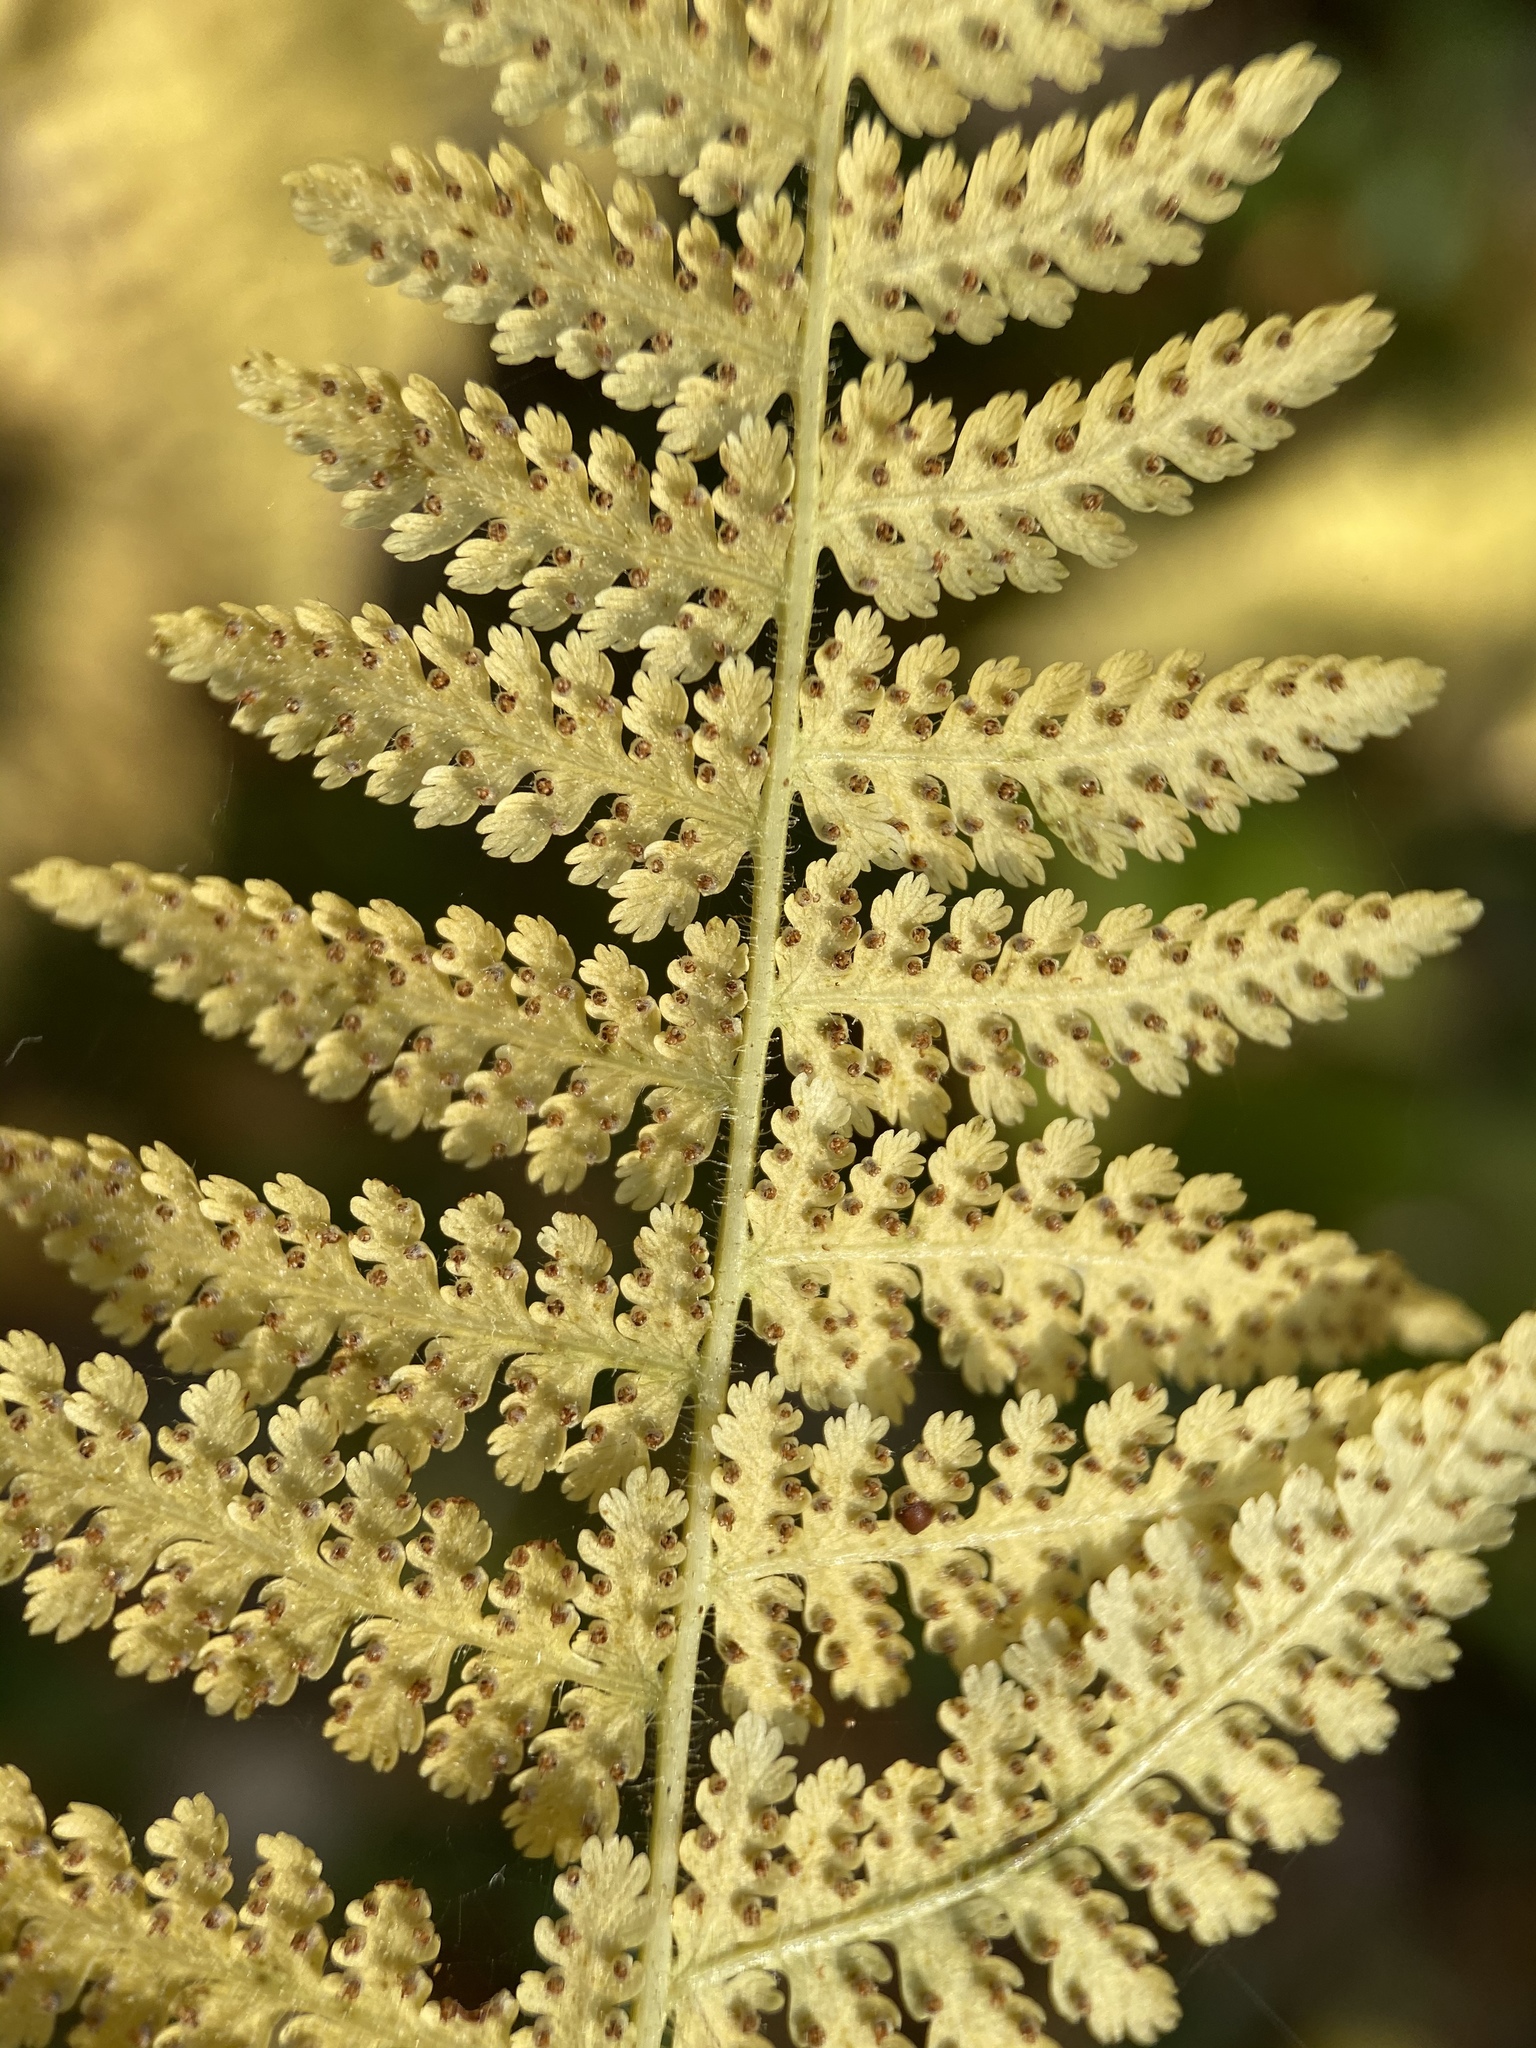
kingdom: Plantae
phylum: Tracheophyta
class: Polypodiopsida
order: Polypodiales
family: Dennstaedtiaceae
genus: Sitobolium
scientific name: Sitobolium punctilobum
